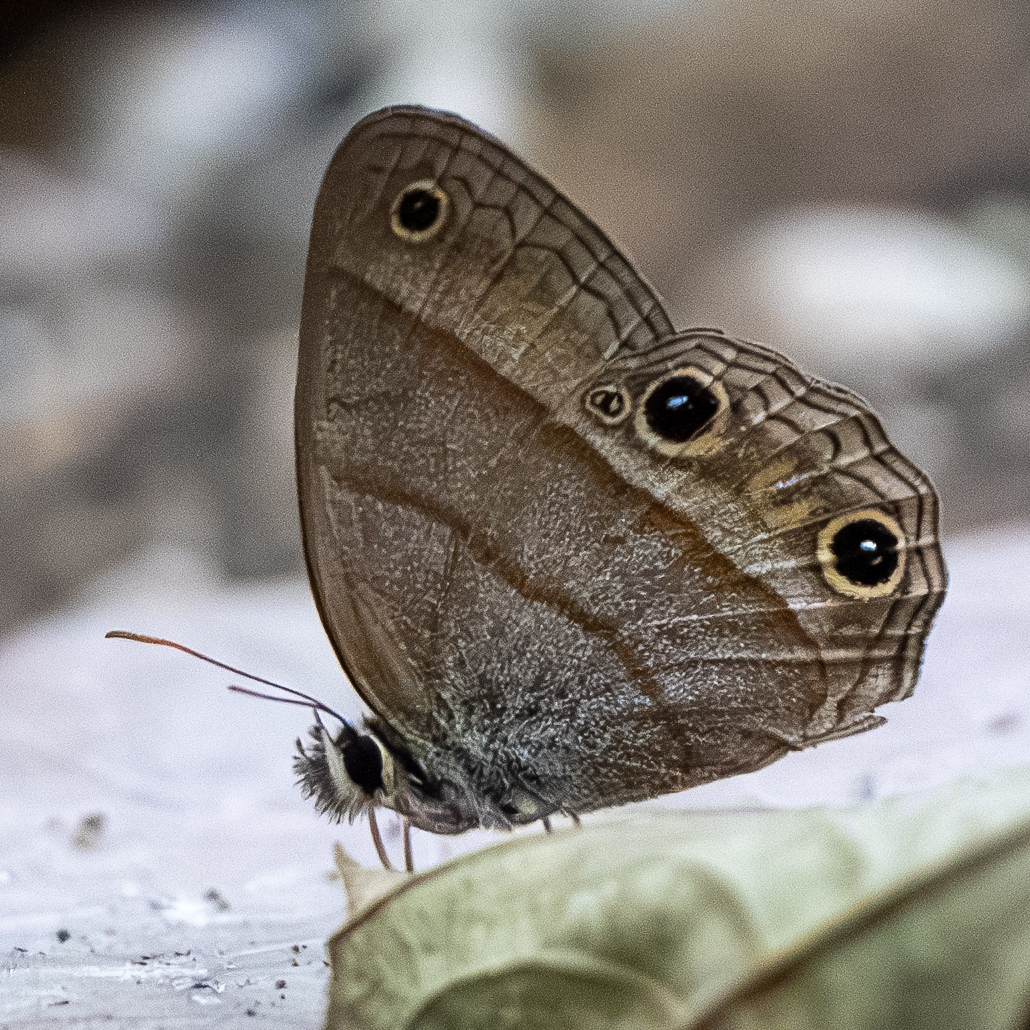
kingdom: Animalia
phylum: Arthropoda
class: Insecta
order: Lepidoptera
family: Nymphalidae
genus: Euptychia
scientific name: Euptychia Cissia pompilia
